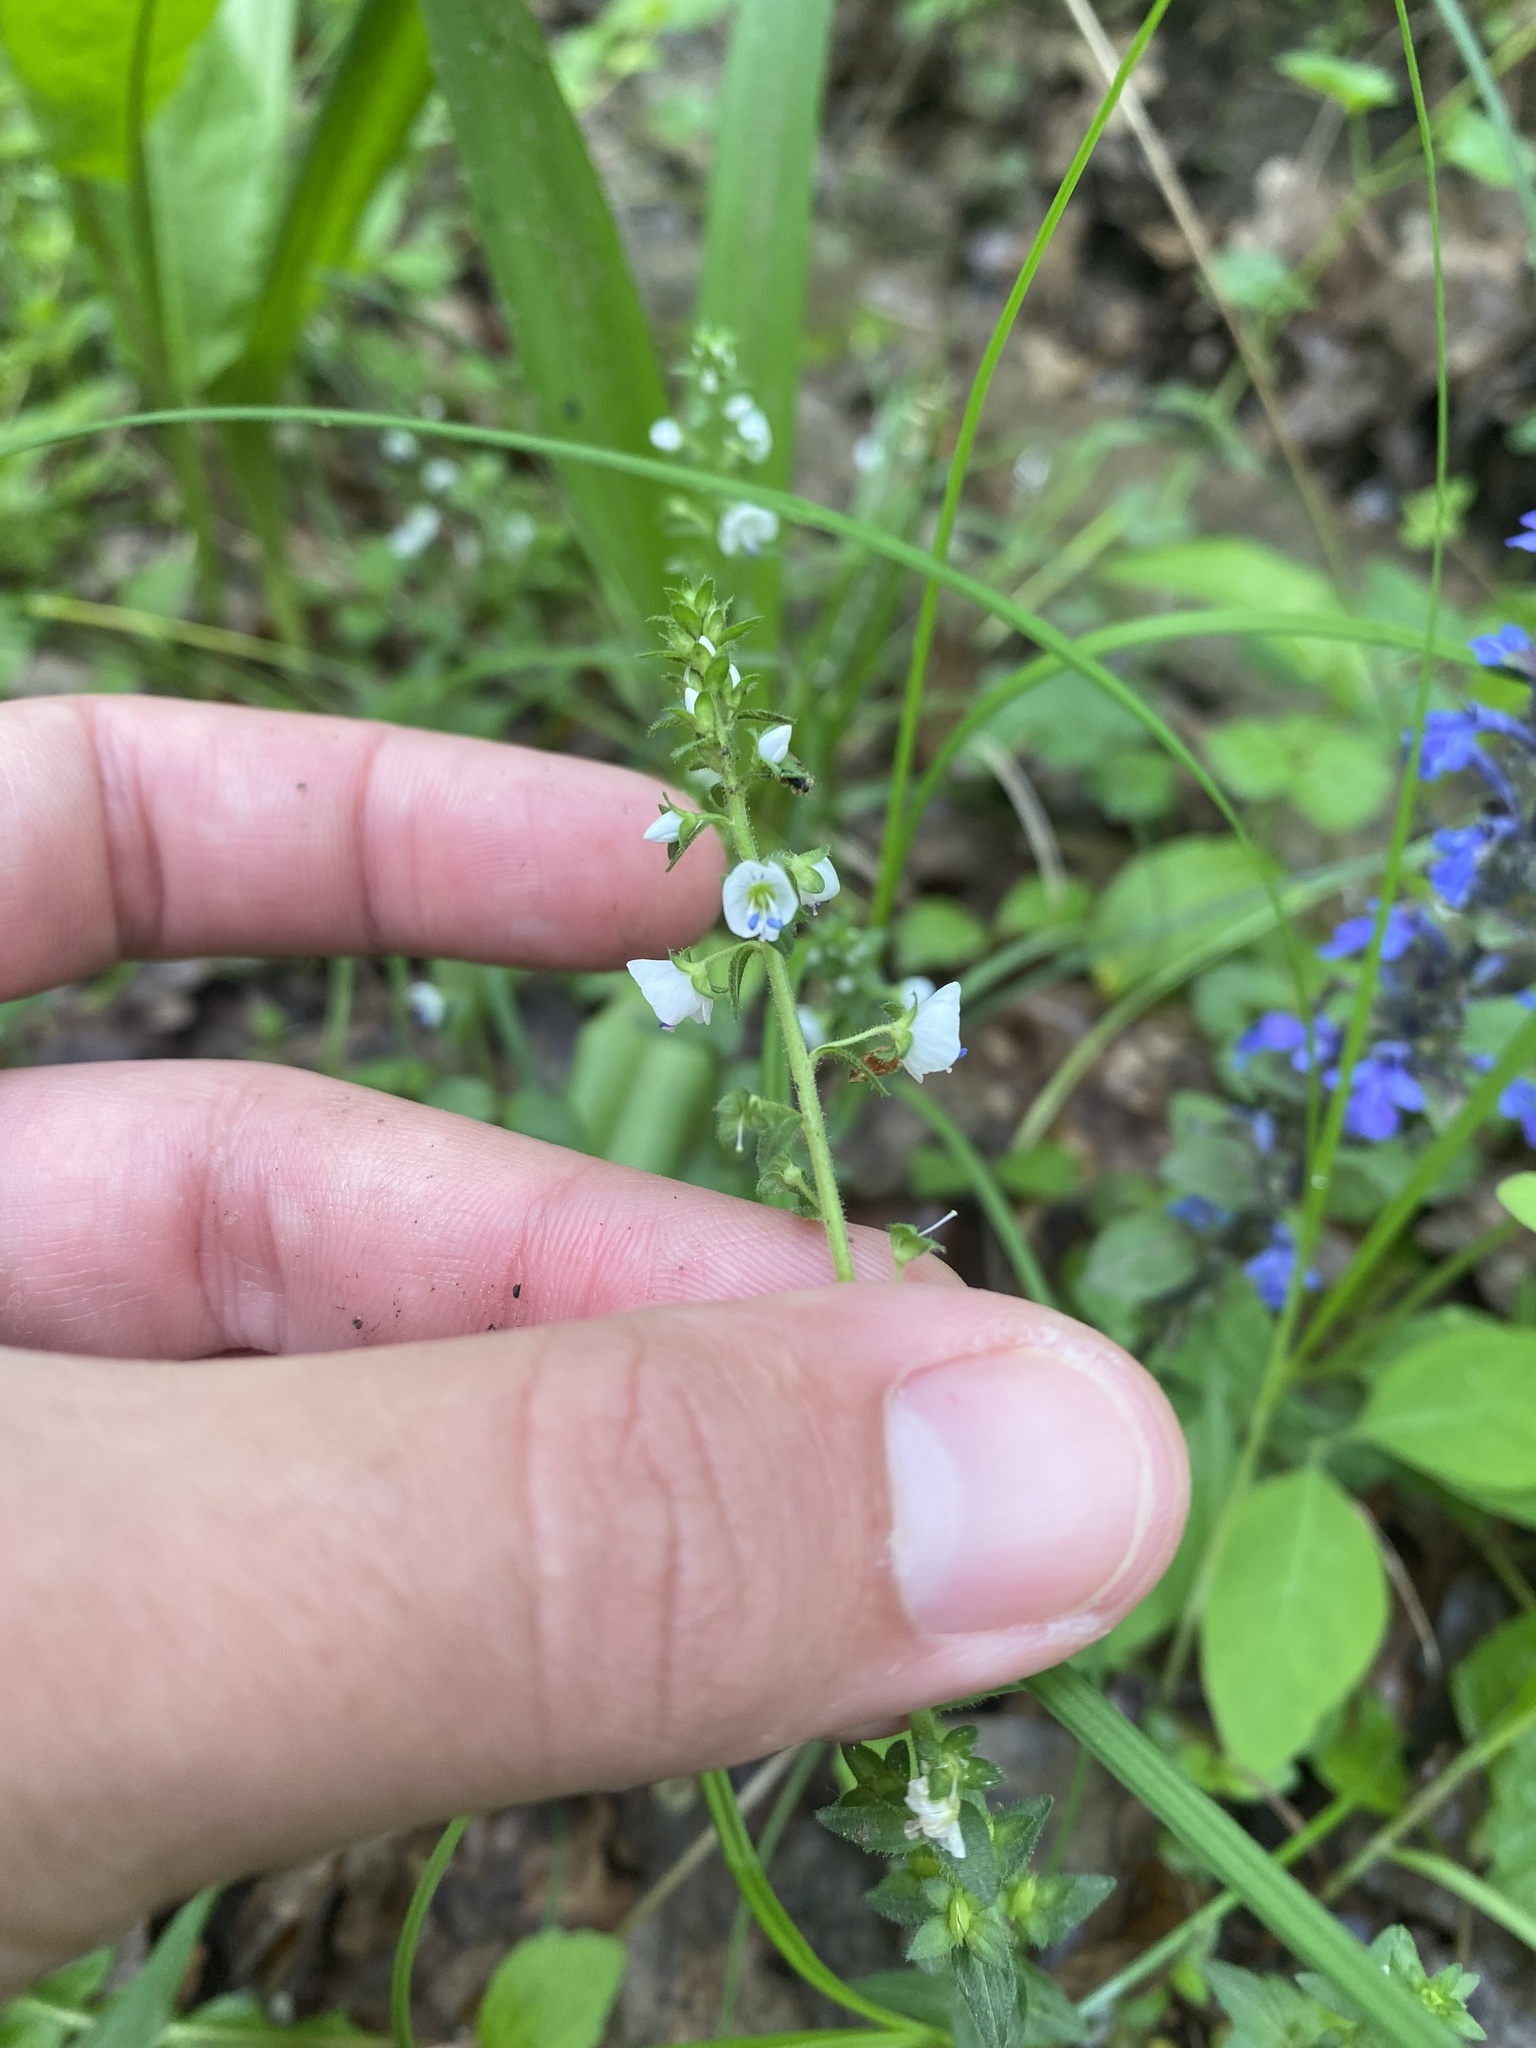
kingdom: Plantae
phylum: Tracheophyta
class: Magnoliopsida
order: Lamiales
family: Plantaginaceae
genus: Veronica
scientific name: Veronica serpyllifolia
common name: Thyme-leaved speedwell
